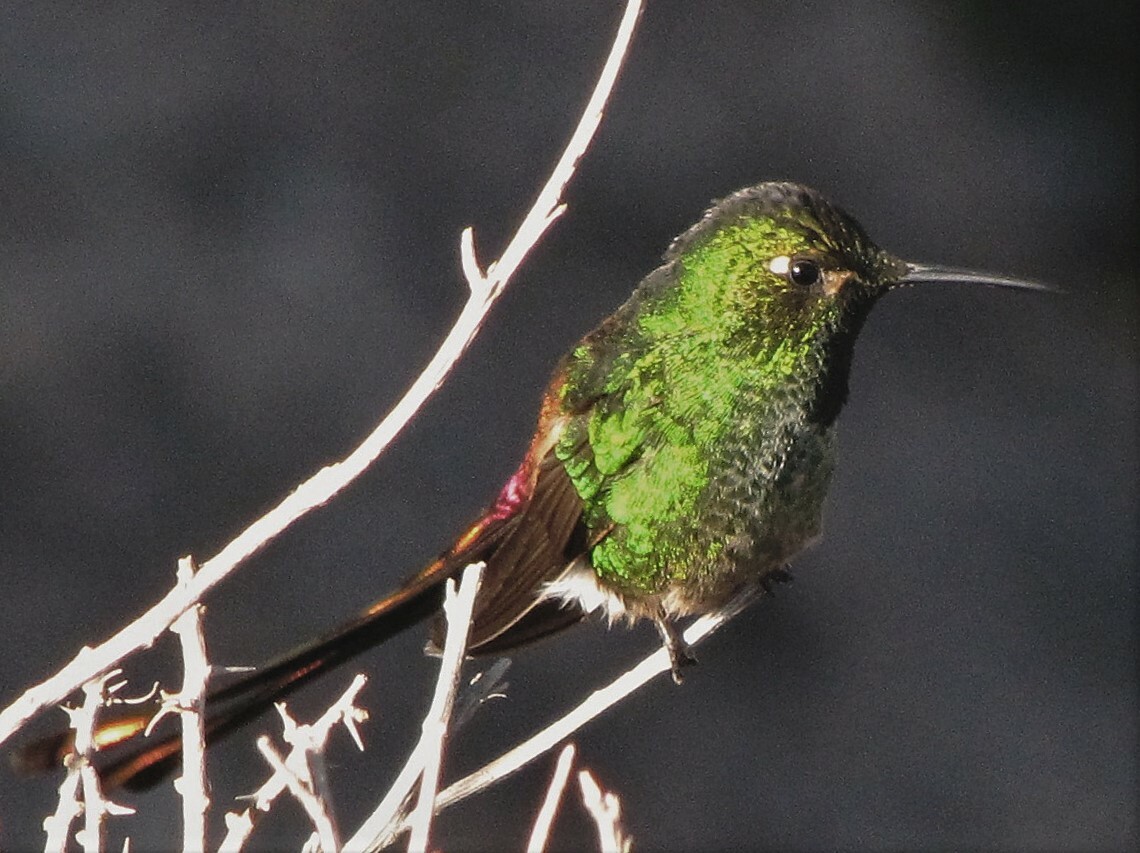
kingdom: Animalia
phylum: Chordata
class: Aves
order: Apodiformes
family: Trochilidae
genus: Sappho
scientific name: Sappho sparganurus
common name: Red-tailed comet
